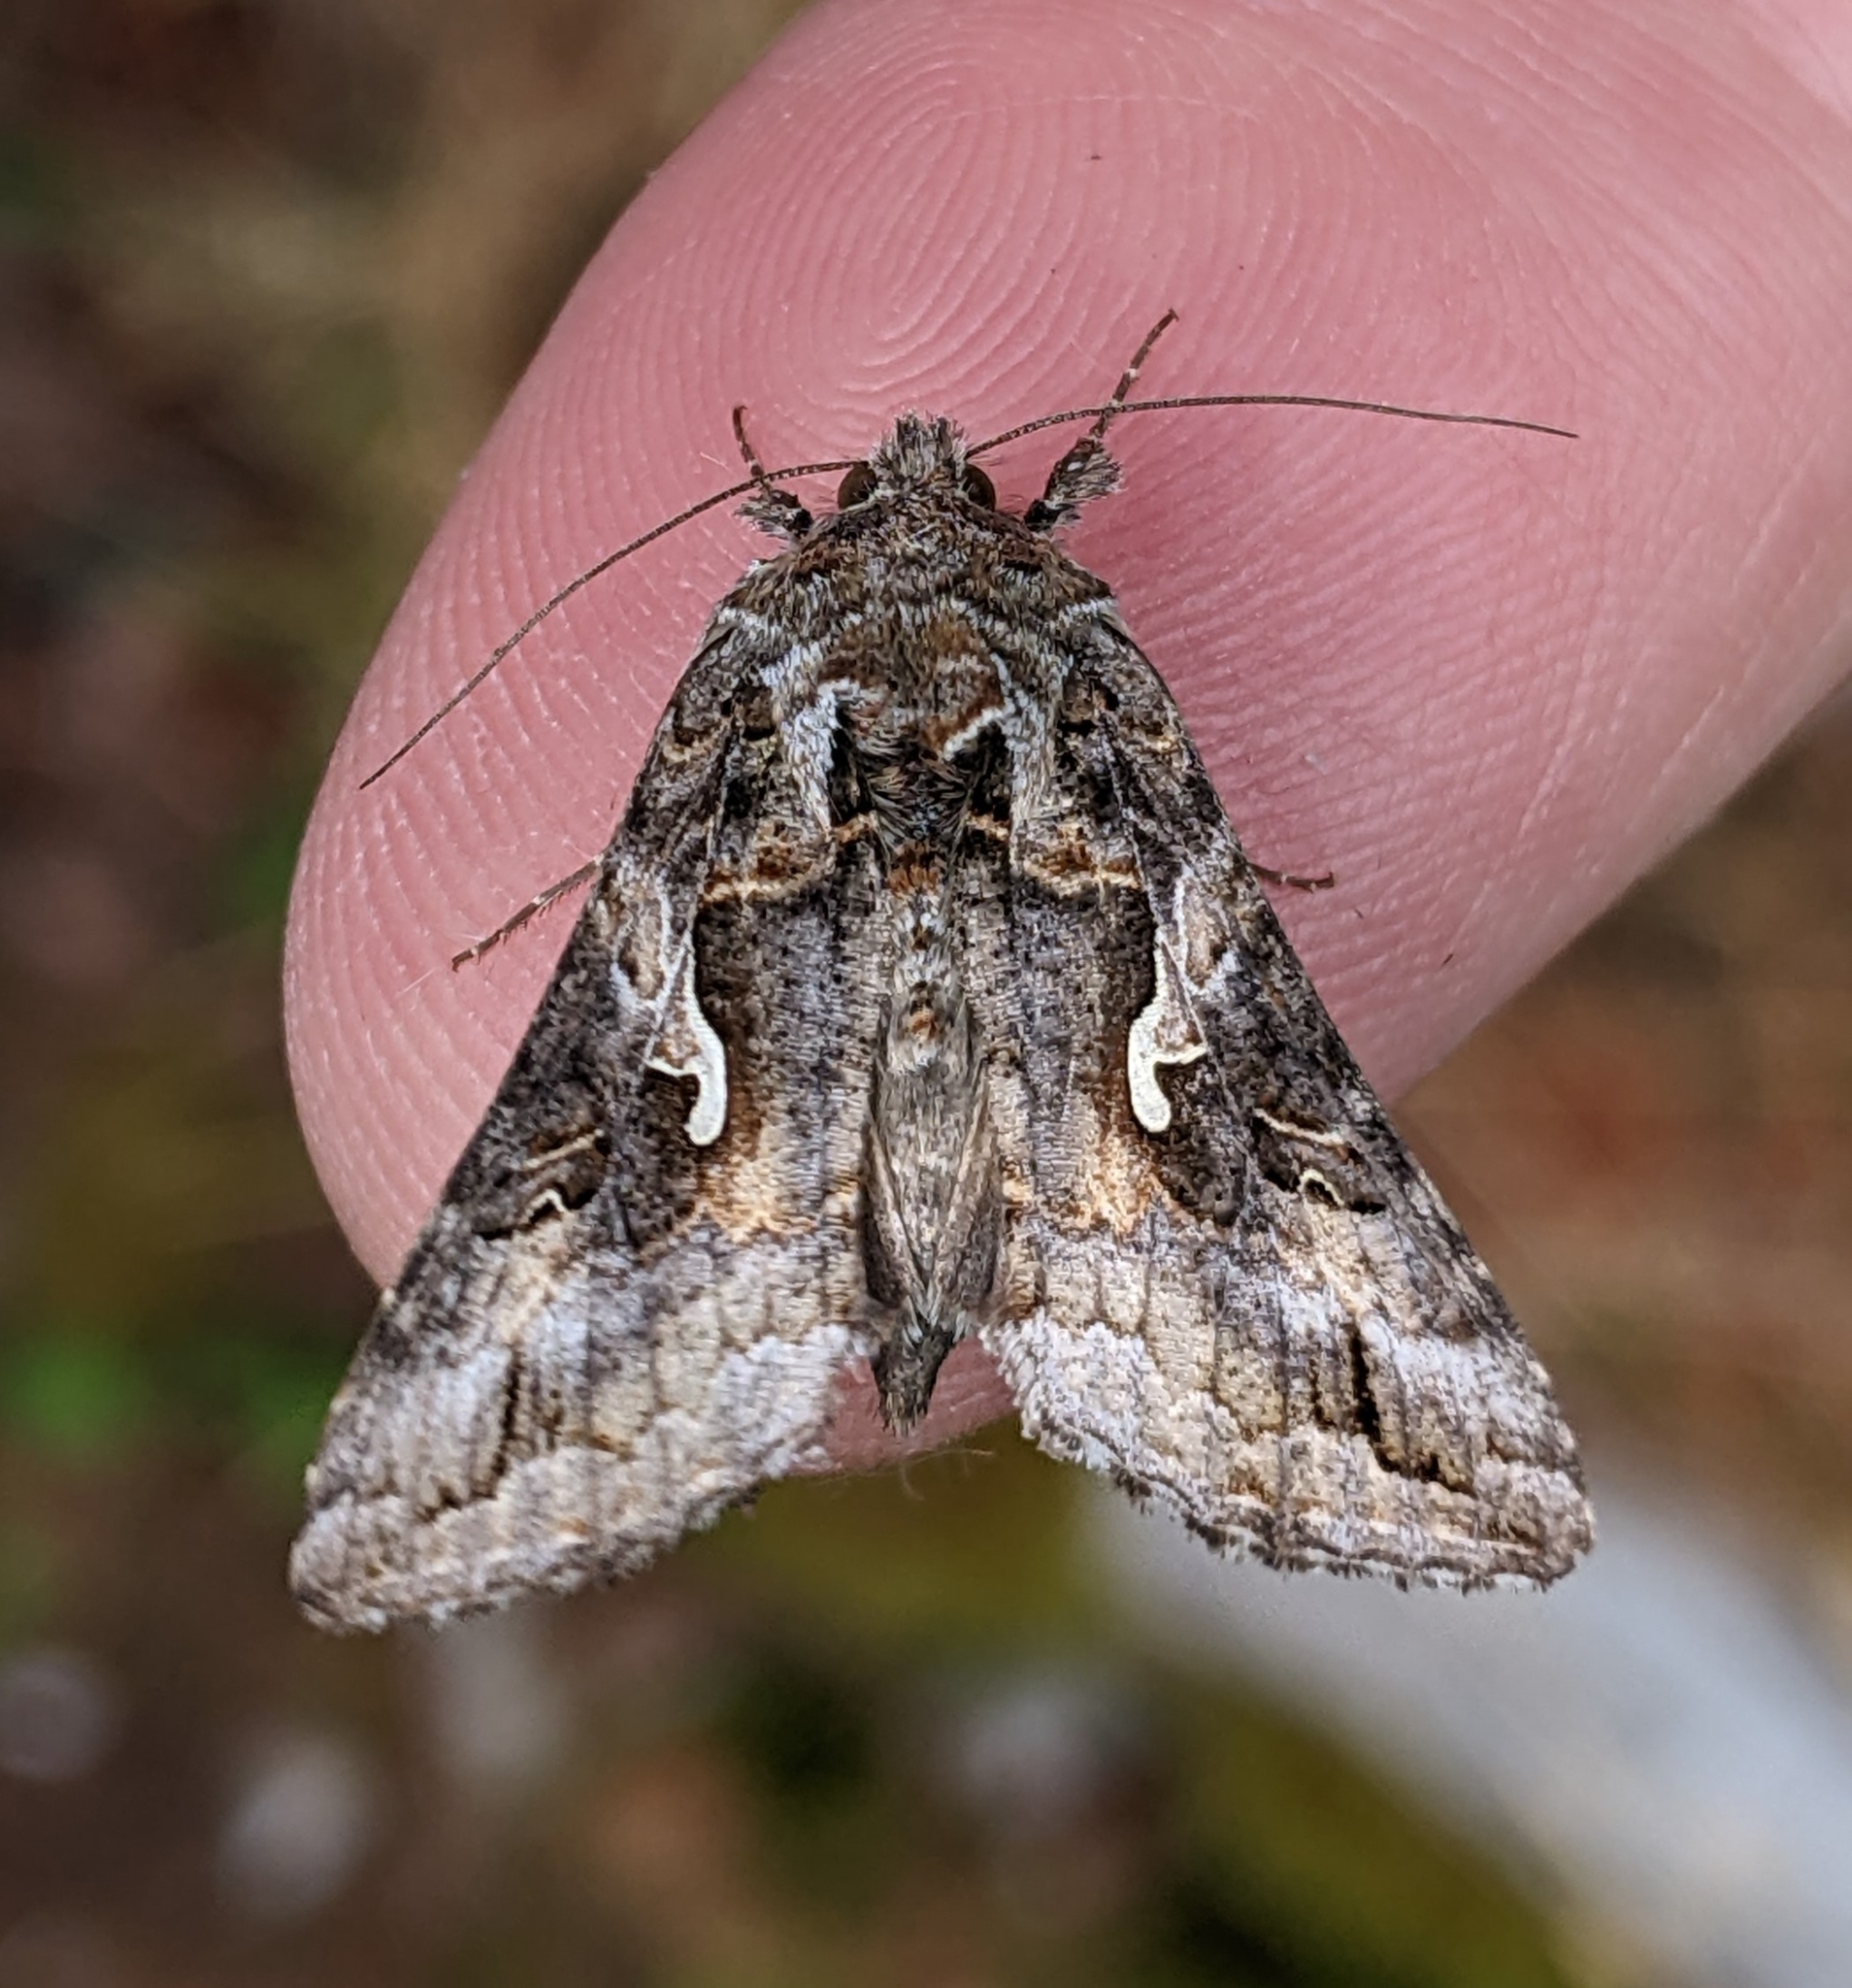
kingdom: Animalia
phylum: Arthropoda
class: Insecta
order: Lepidoptera
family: Noctuidae
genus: Autographa
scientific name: Autographa californica
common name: Alfalfa looper
